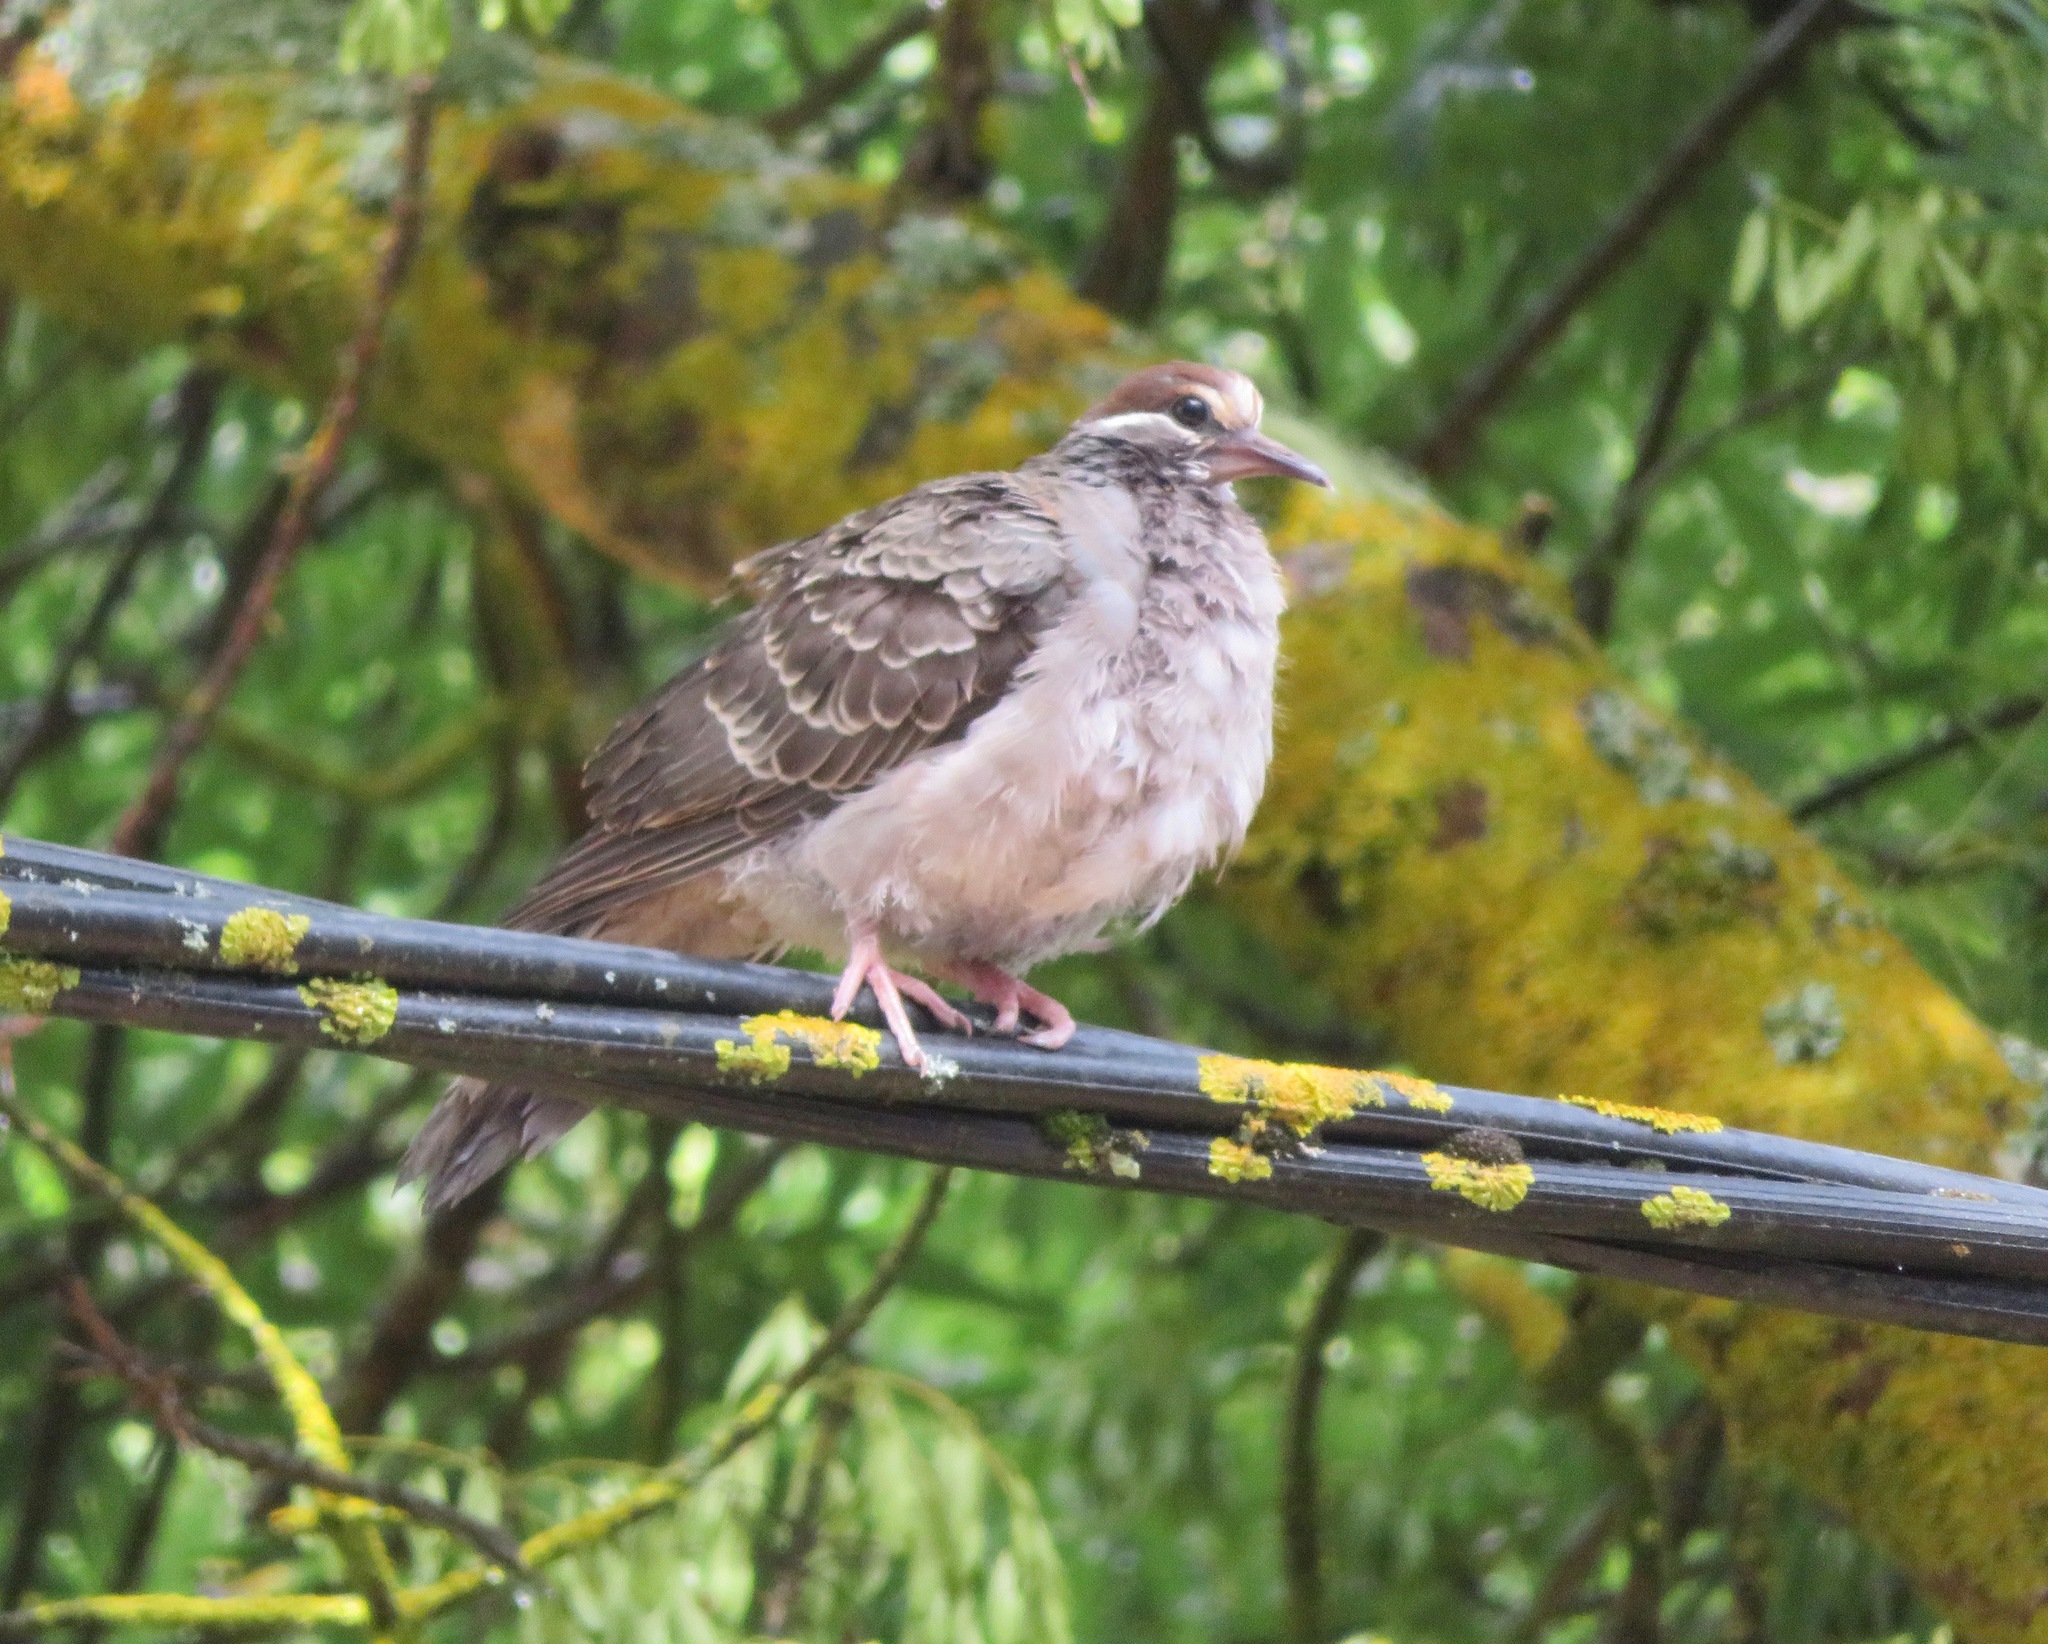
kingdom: Animalia
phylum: Chordata
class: Aves
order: Columbiformes
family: Columbidae
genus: Phaps
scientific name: Phaps chalcoptera
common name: Common bronzewing
